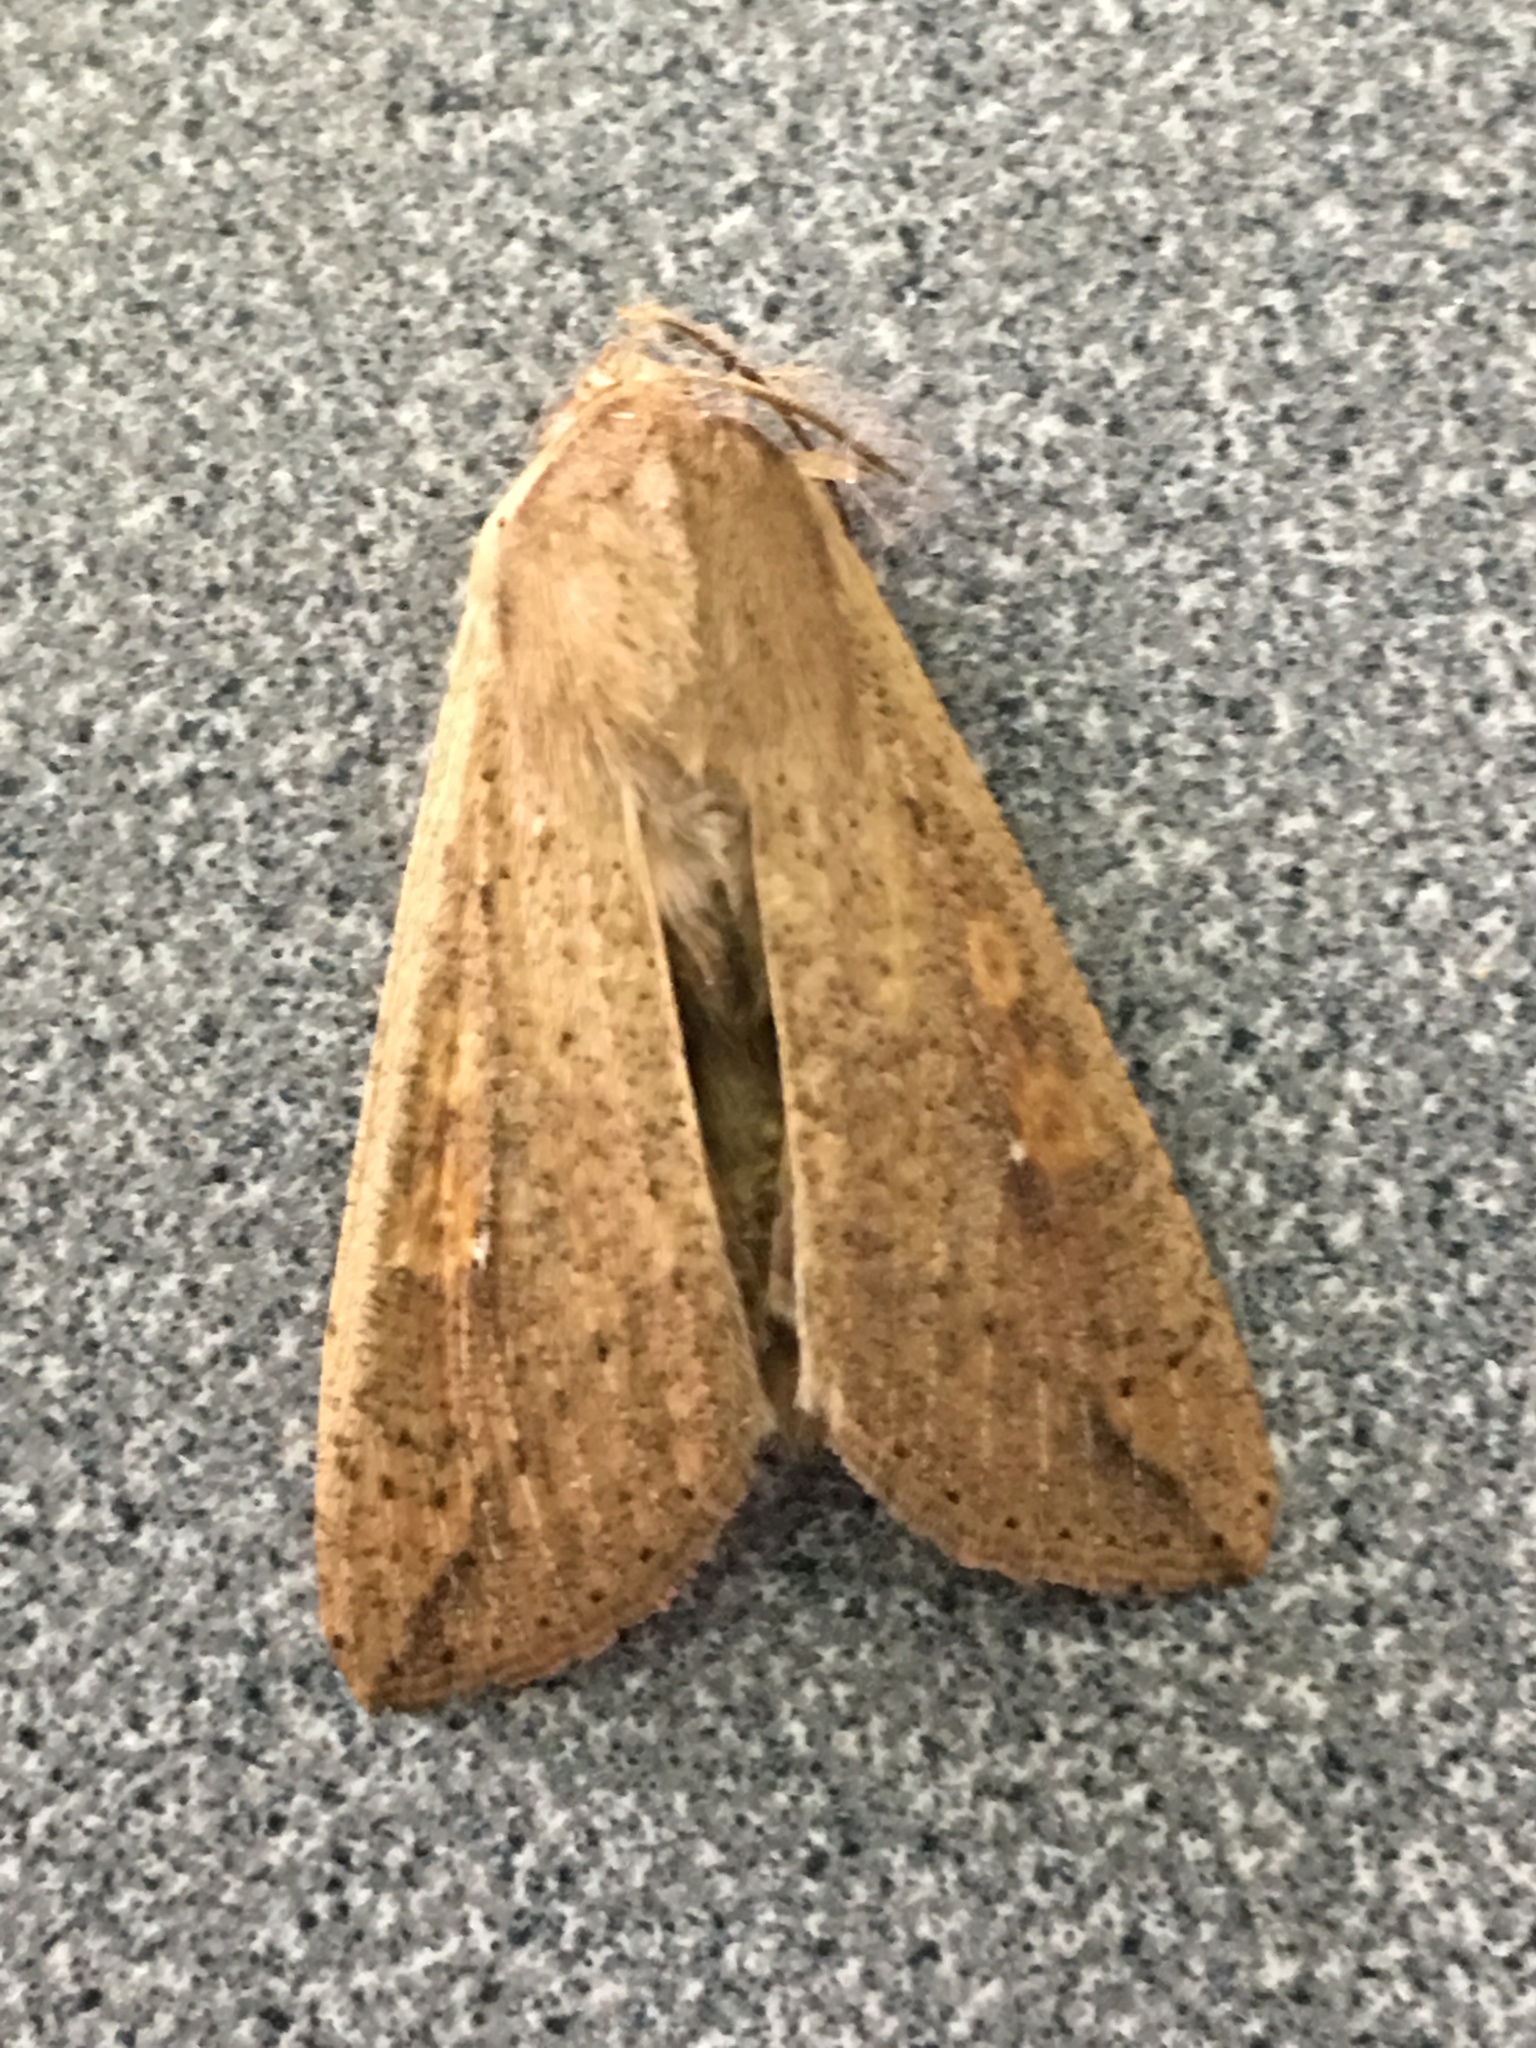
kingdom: Animalia
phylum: Arthropoda
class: Insecta
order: Lepidoptera
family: Noctuidae
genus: Mythimna
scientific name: Mythimna unipuncta
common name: White-speck
